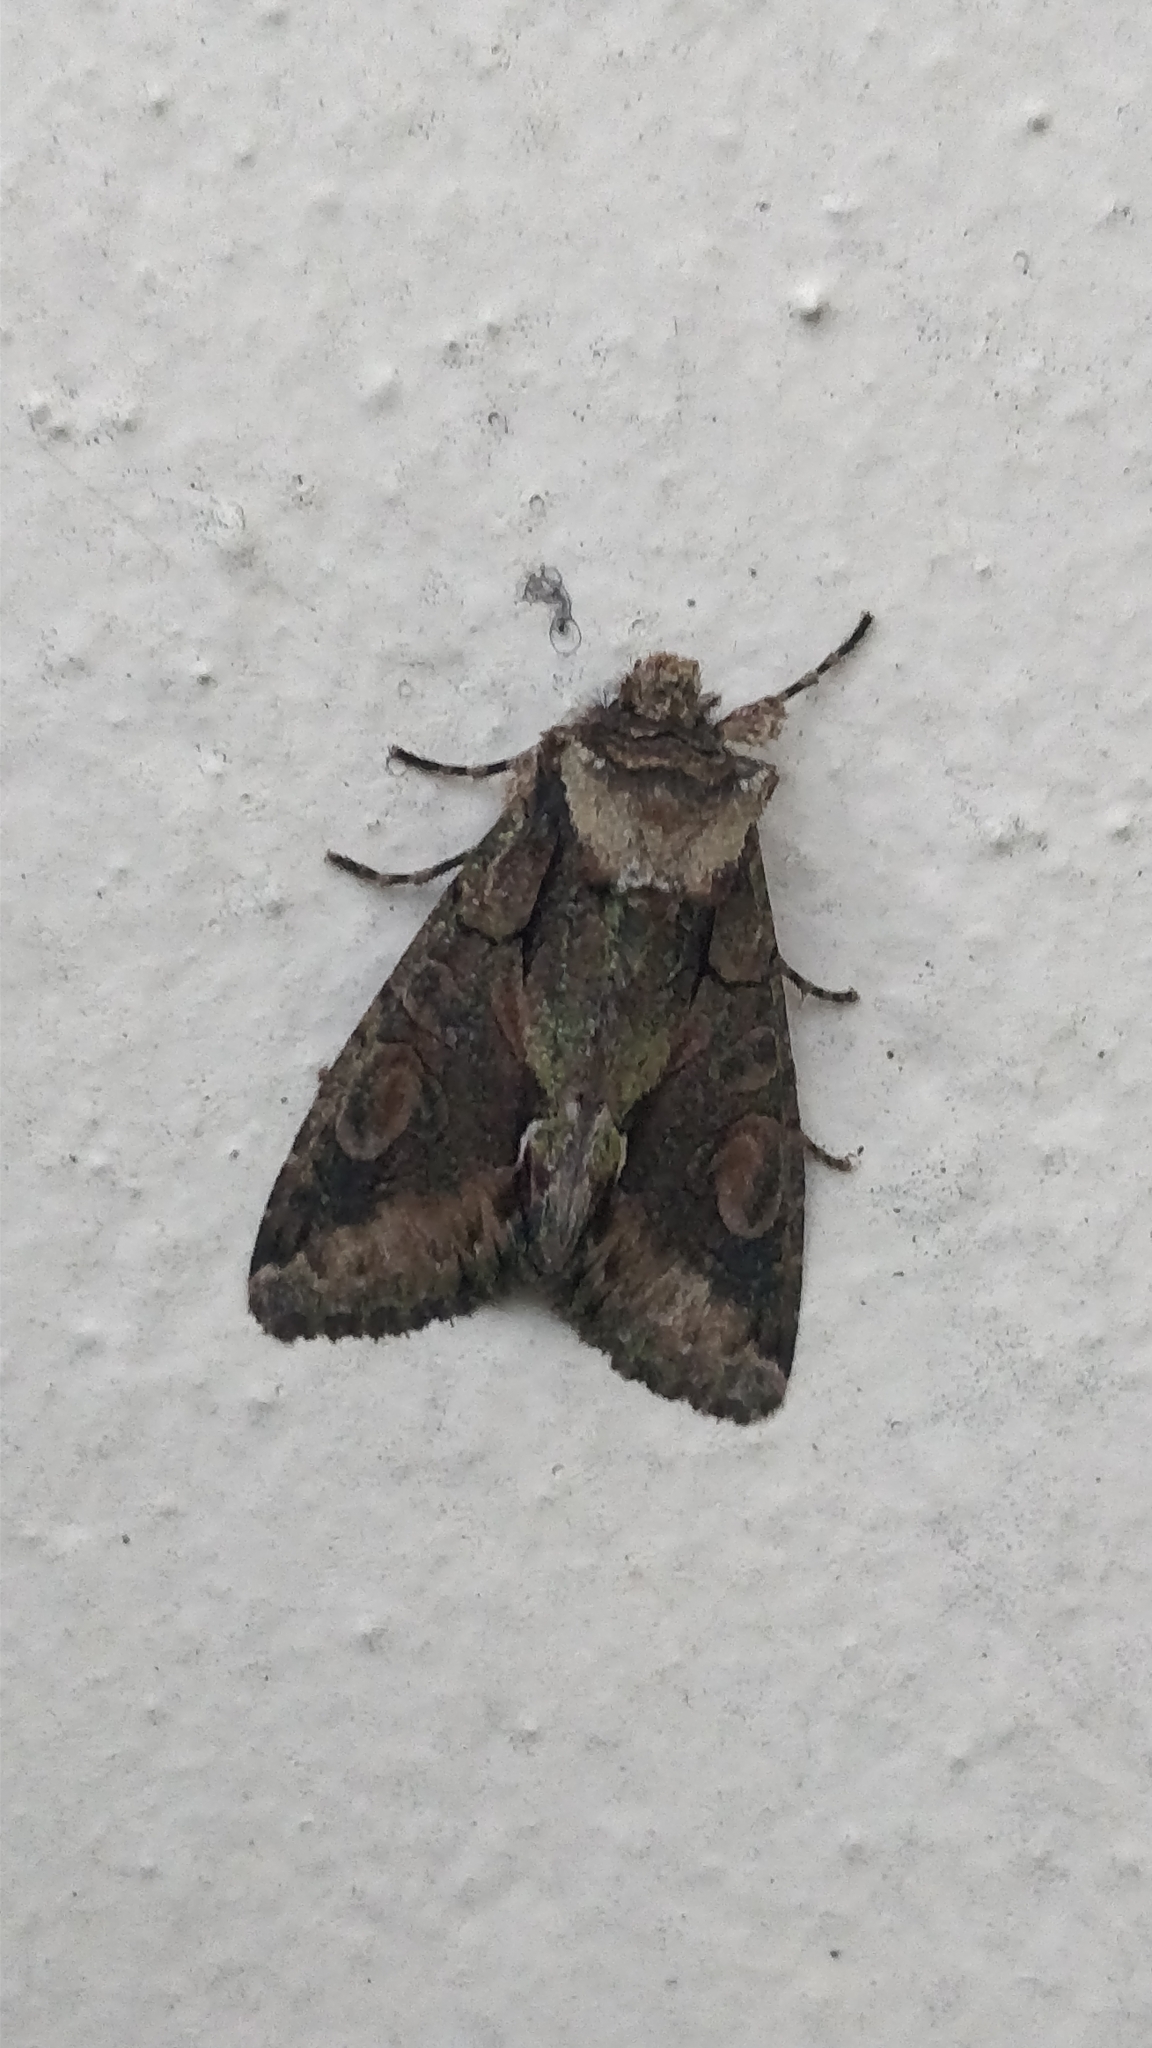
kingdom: Animalia
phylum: Arthropoda
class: Insecta
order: Lepidoptera
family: Noctuidae
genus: Allophyes
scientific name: Allophyes oxyacanthae
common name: Green-brindled crescent
